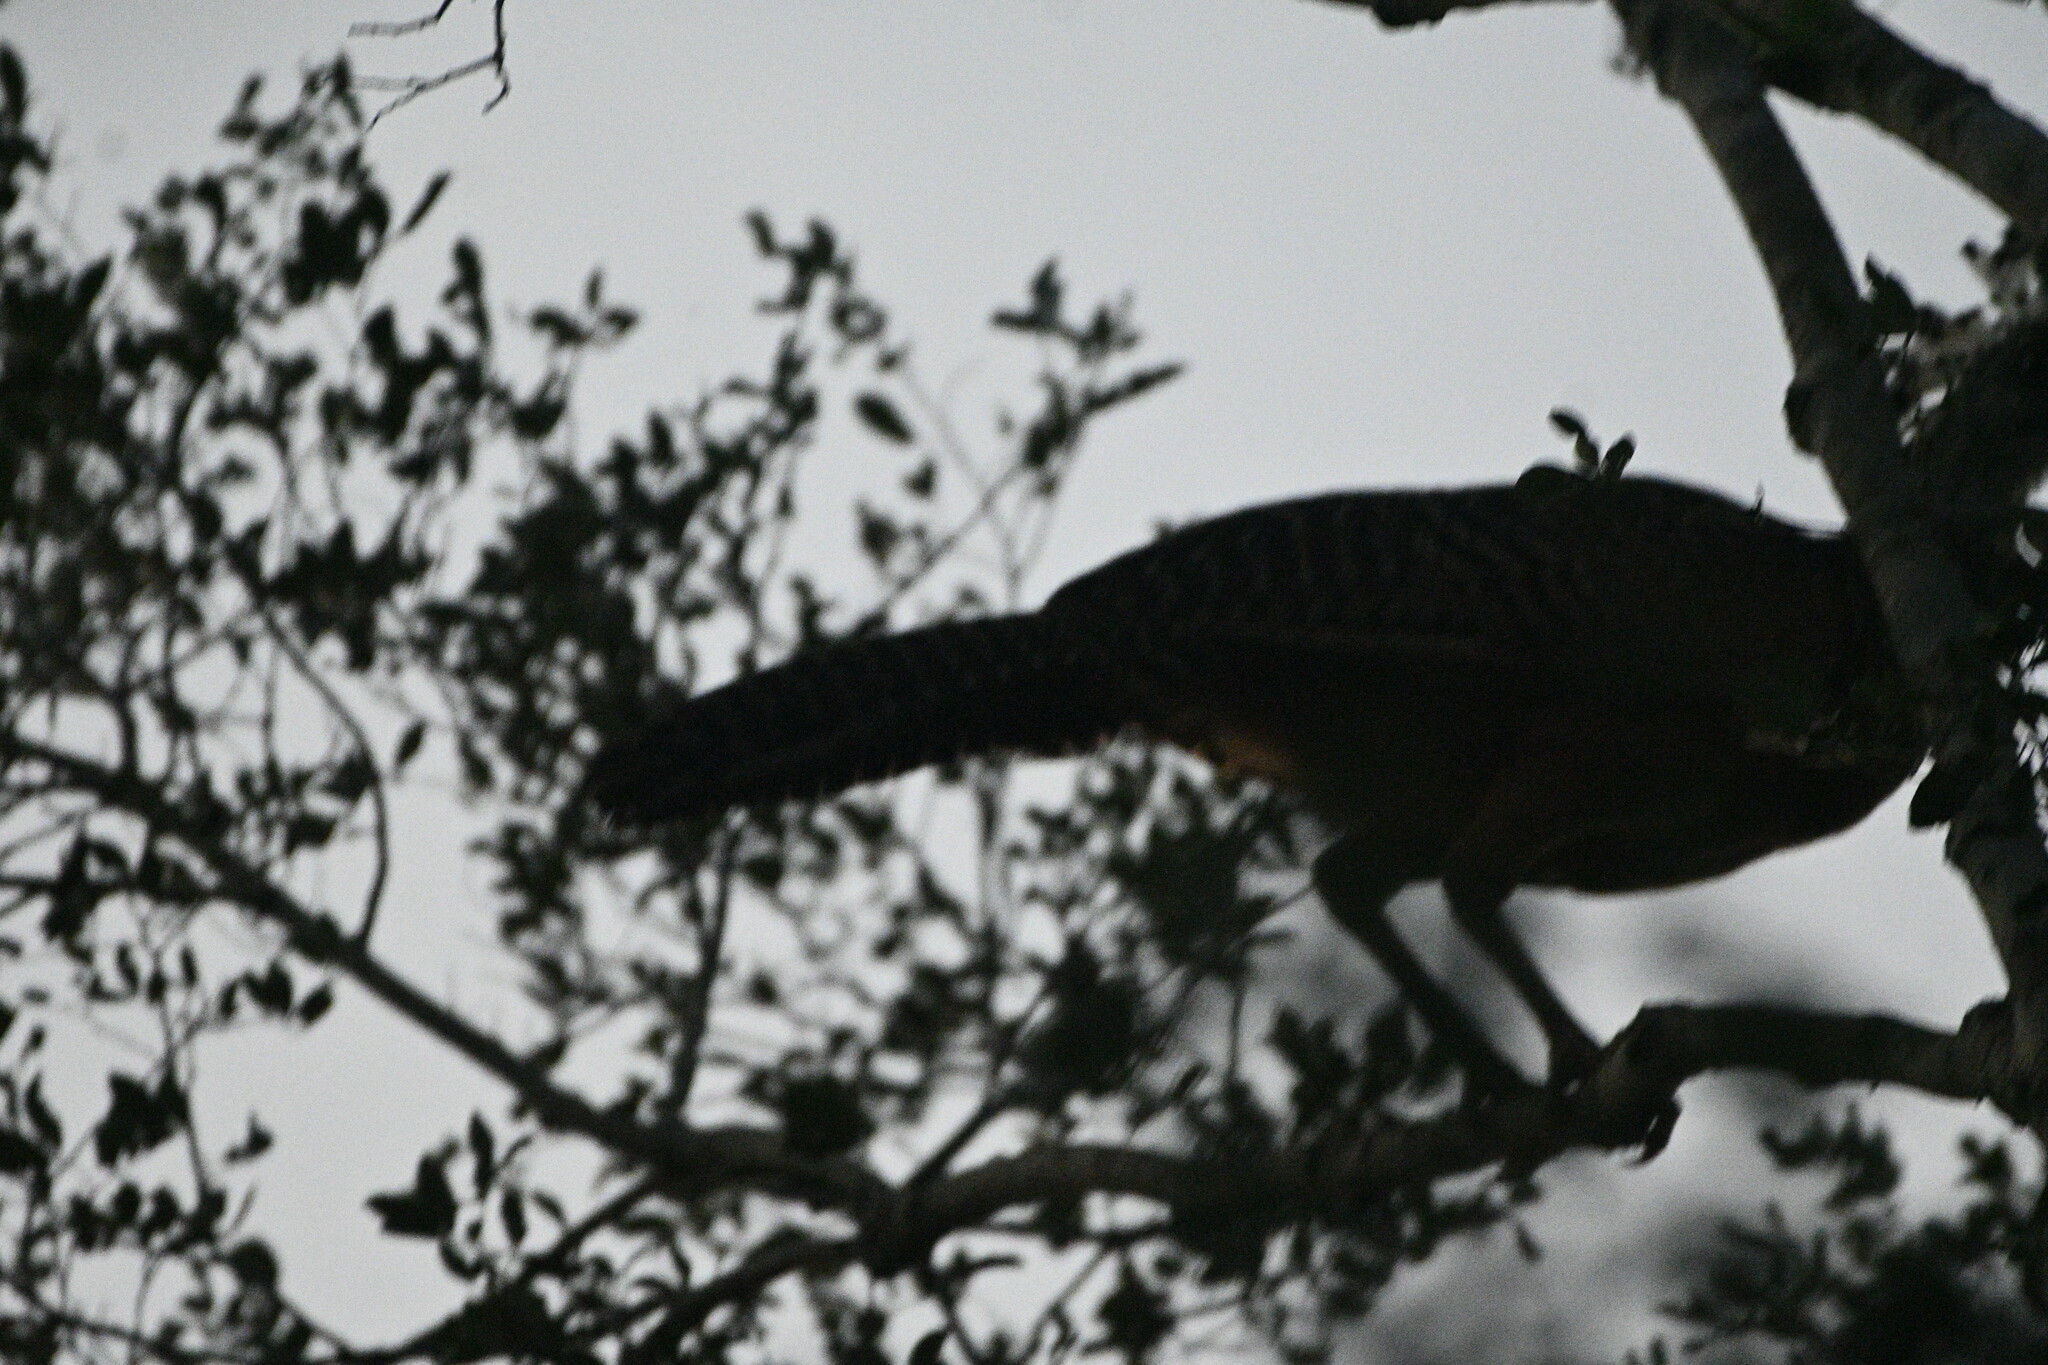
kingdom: Animalia
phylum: Chordata
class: Aves
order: Galliformes
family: Cracidae
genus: Crax
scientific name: Crax rubra
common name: Great curassow
